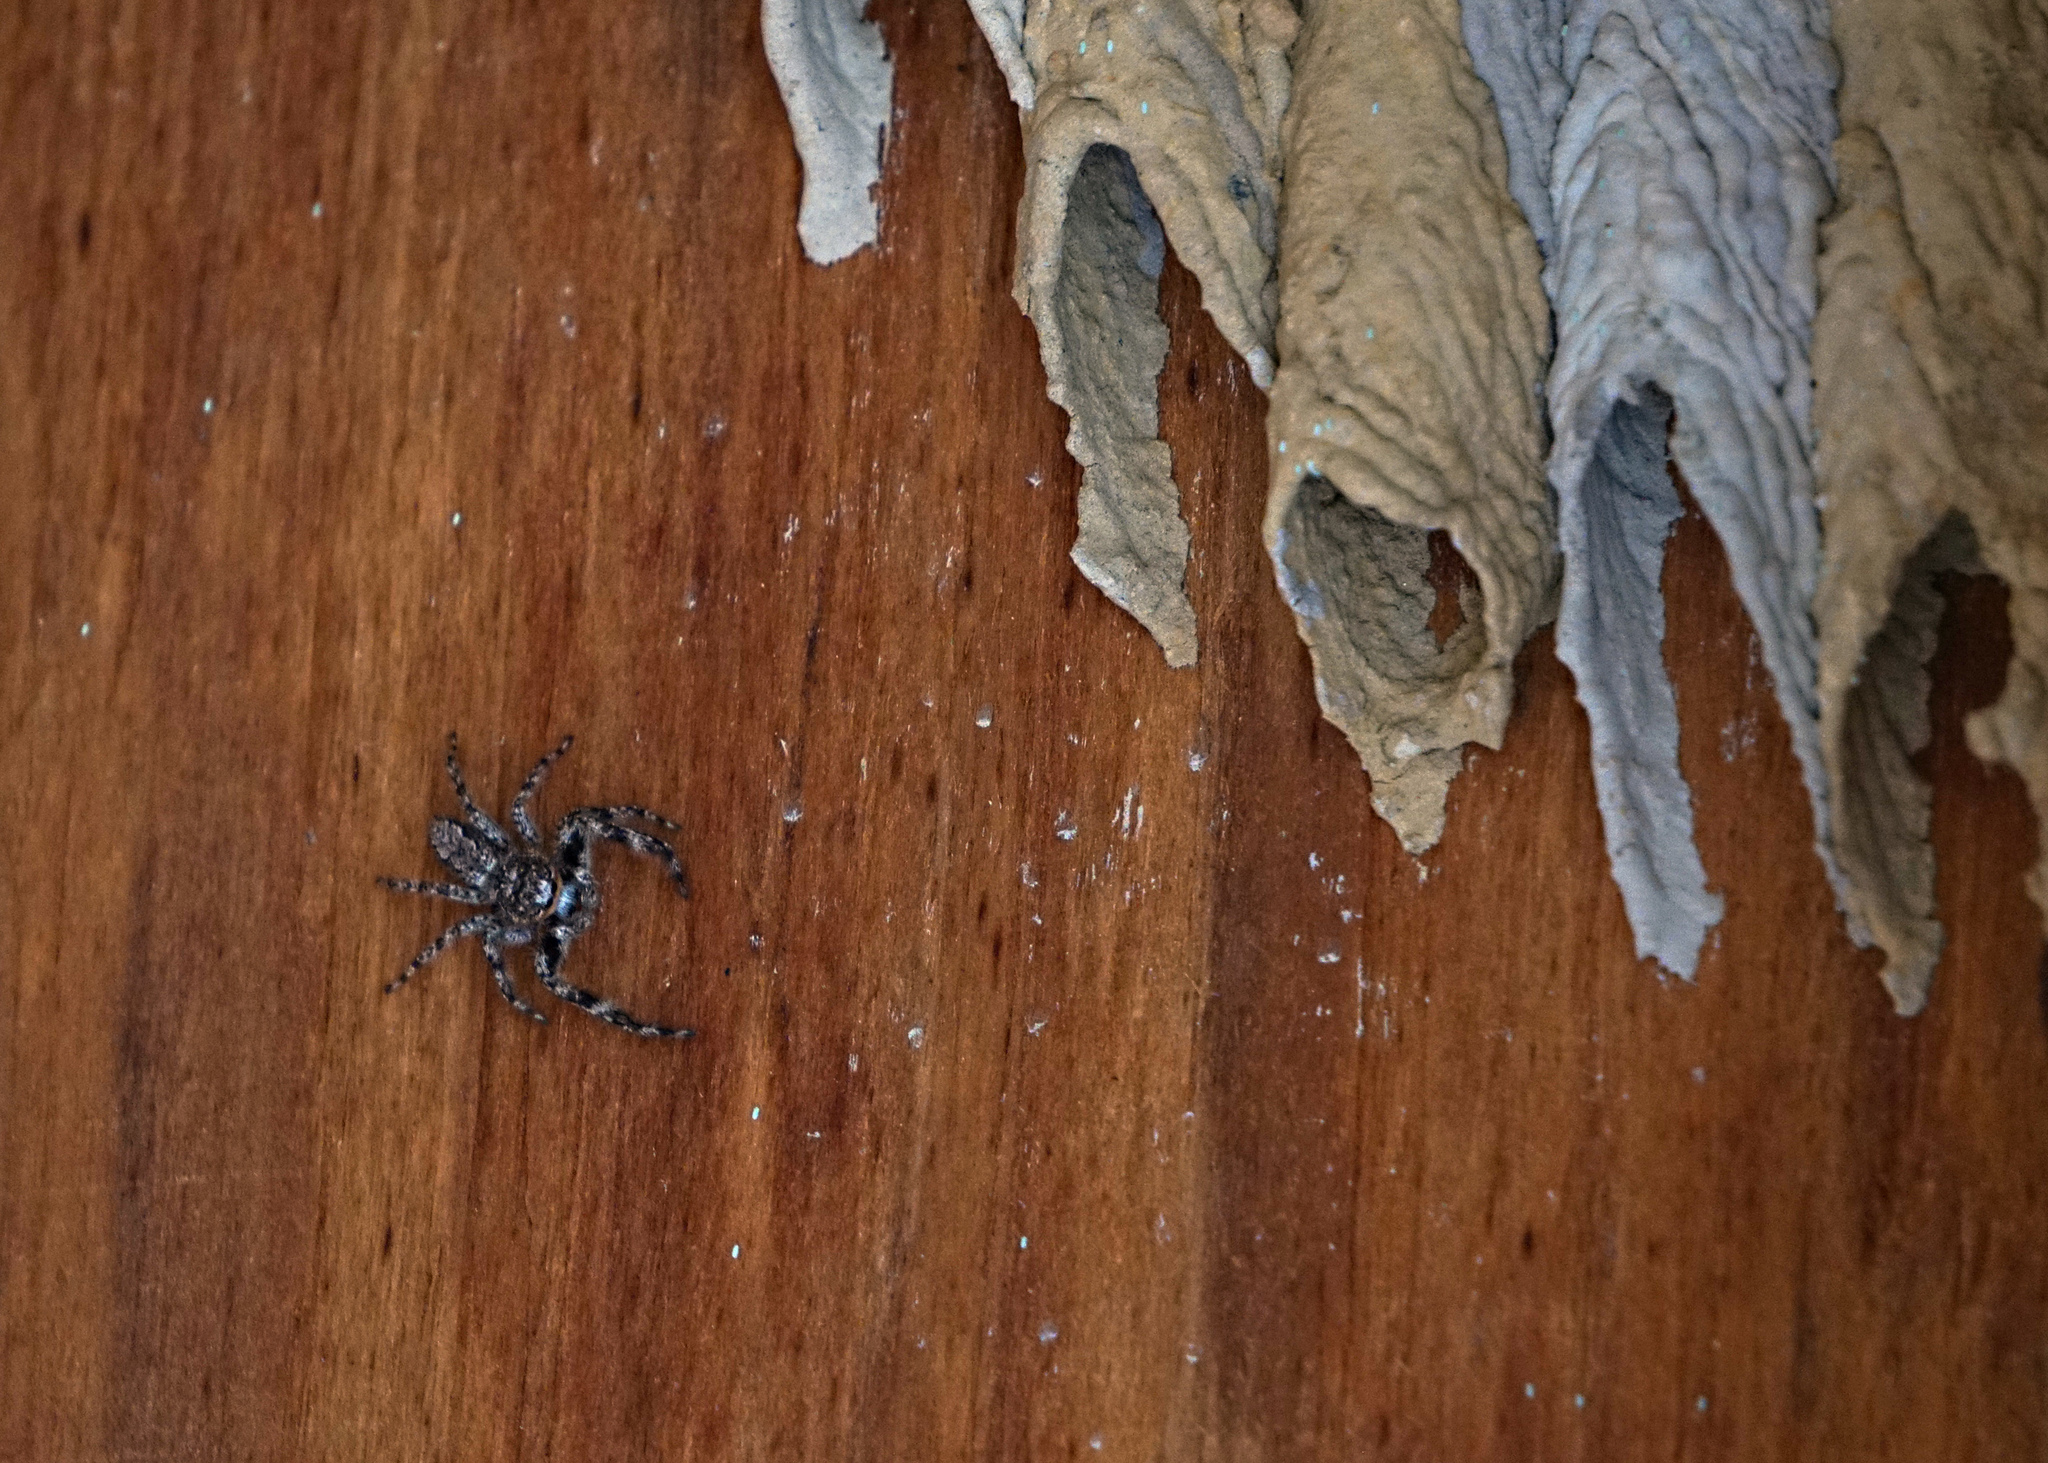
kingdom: Animalia
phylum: Arthropoda
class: Arachnida
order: Araneae
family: Salticidae
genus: Platycryptus
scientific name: Platycryptus undatus
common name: Tan jumping spider
